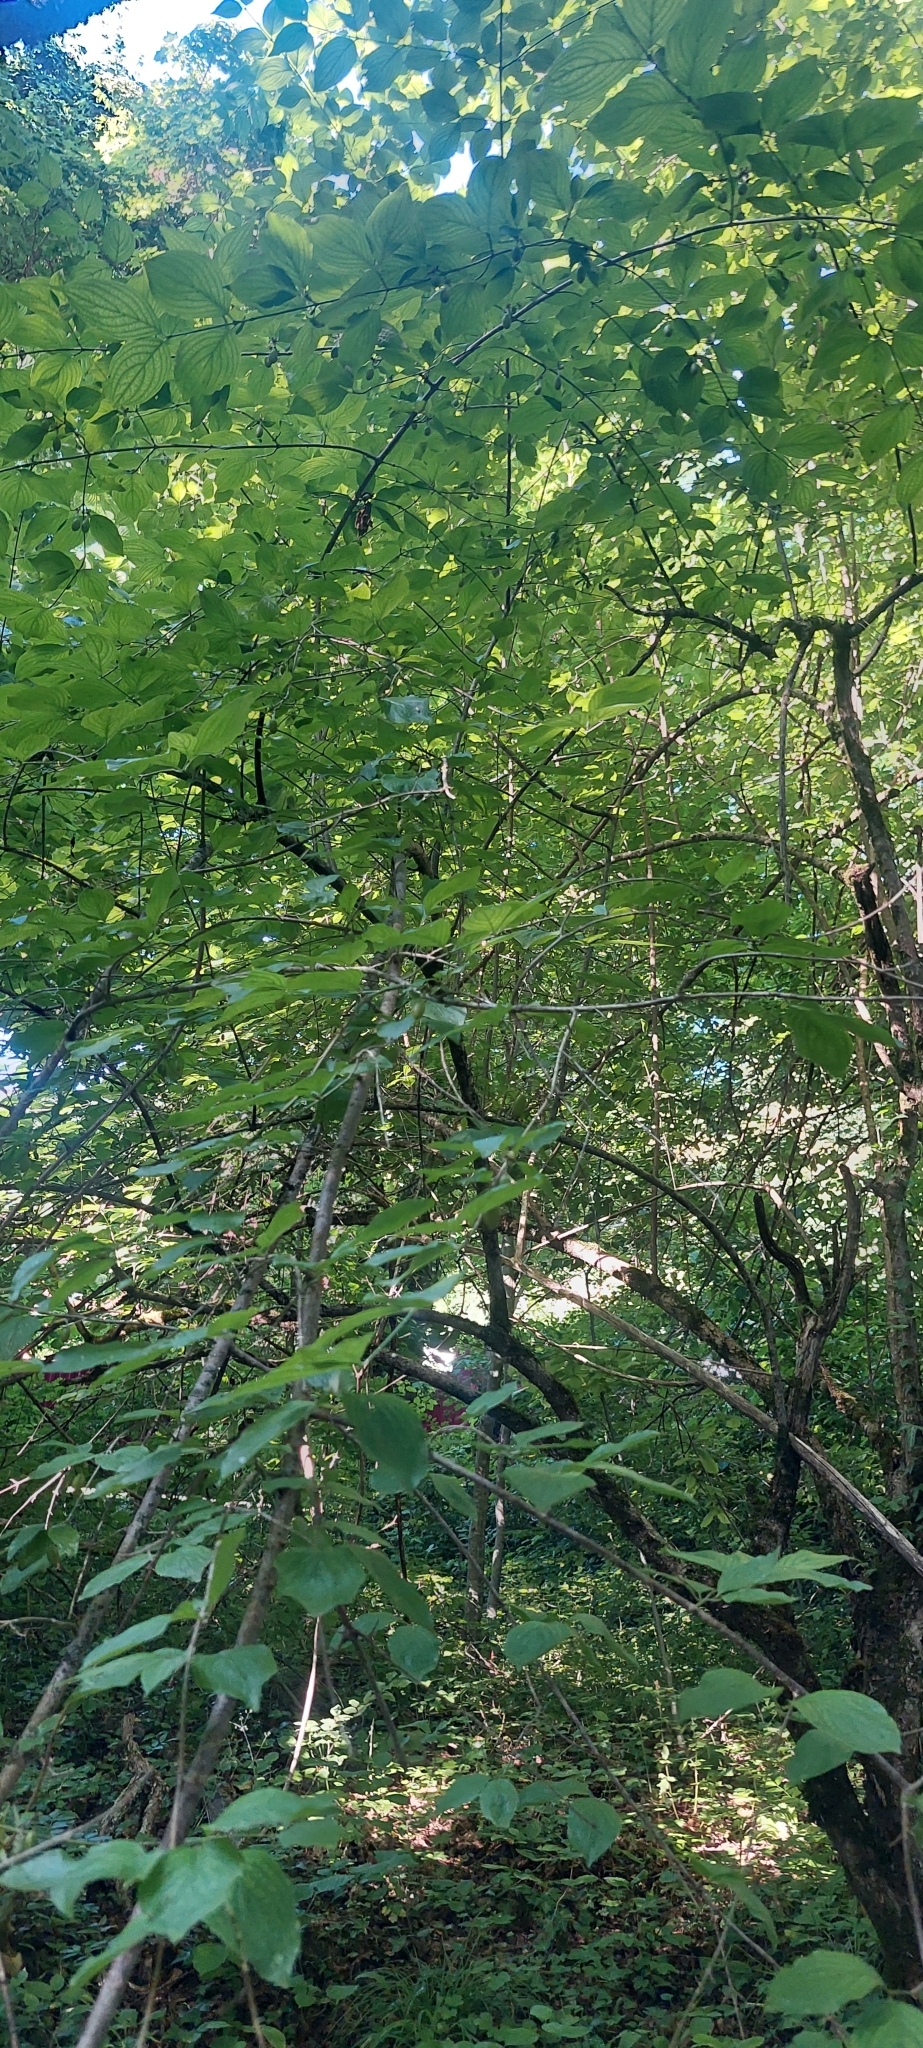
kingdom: Plantae
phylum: Tracheophyta
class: Magnoliopsida
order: Cornales
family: Cornaceae
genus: Cornus
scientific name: Cornus mas
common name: Cornelian-cherry
